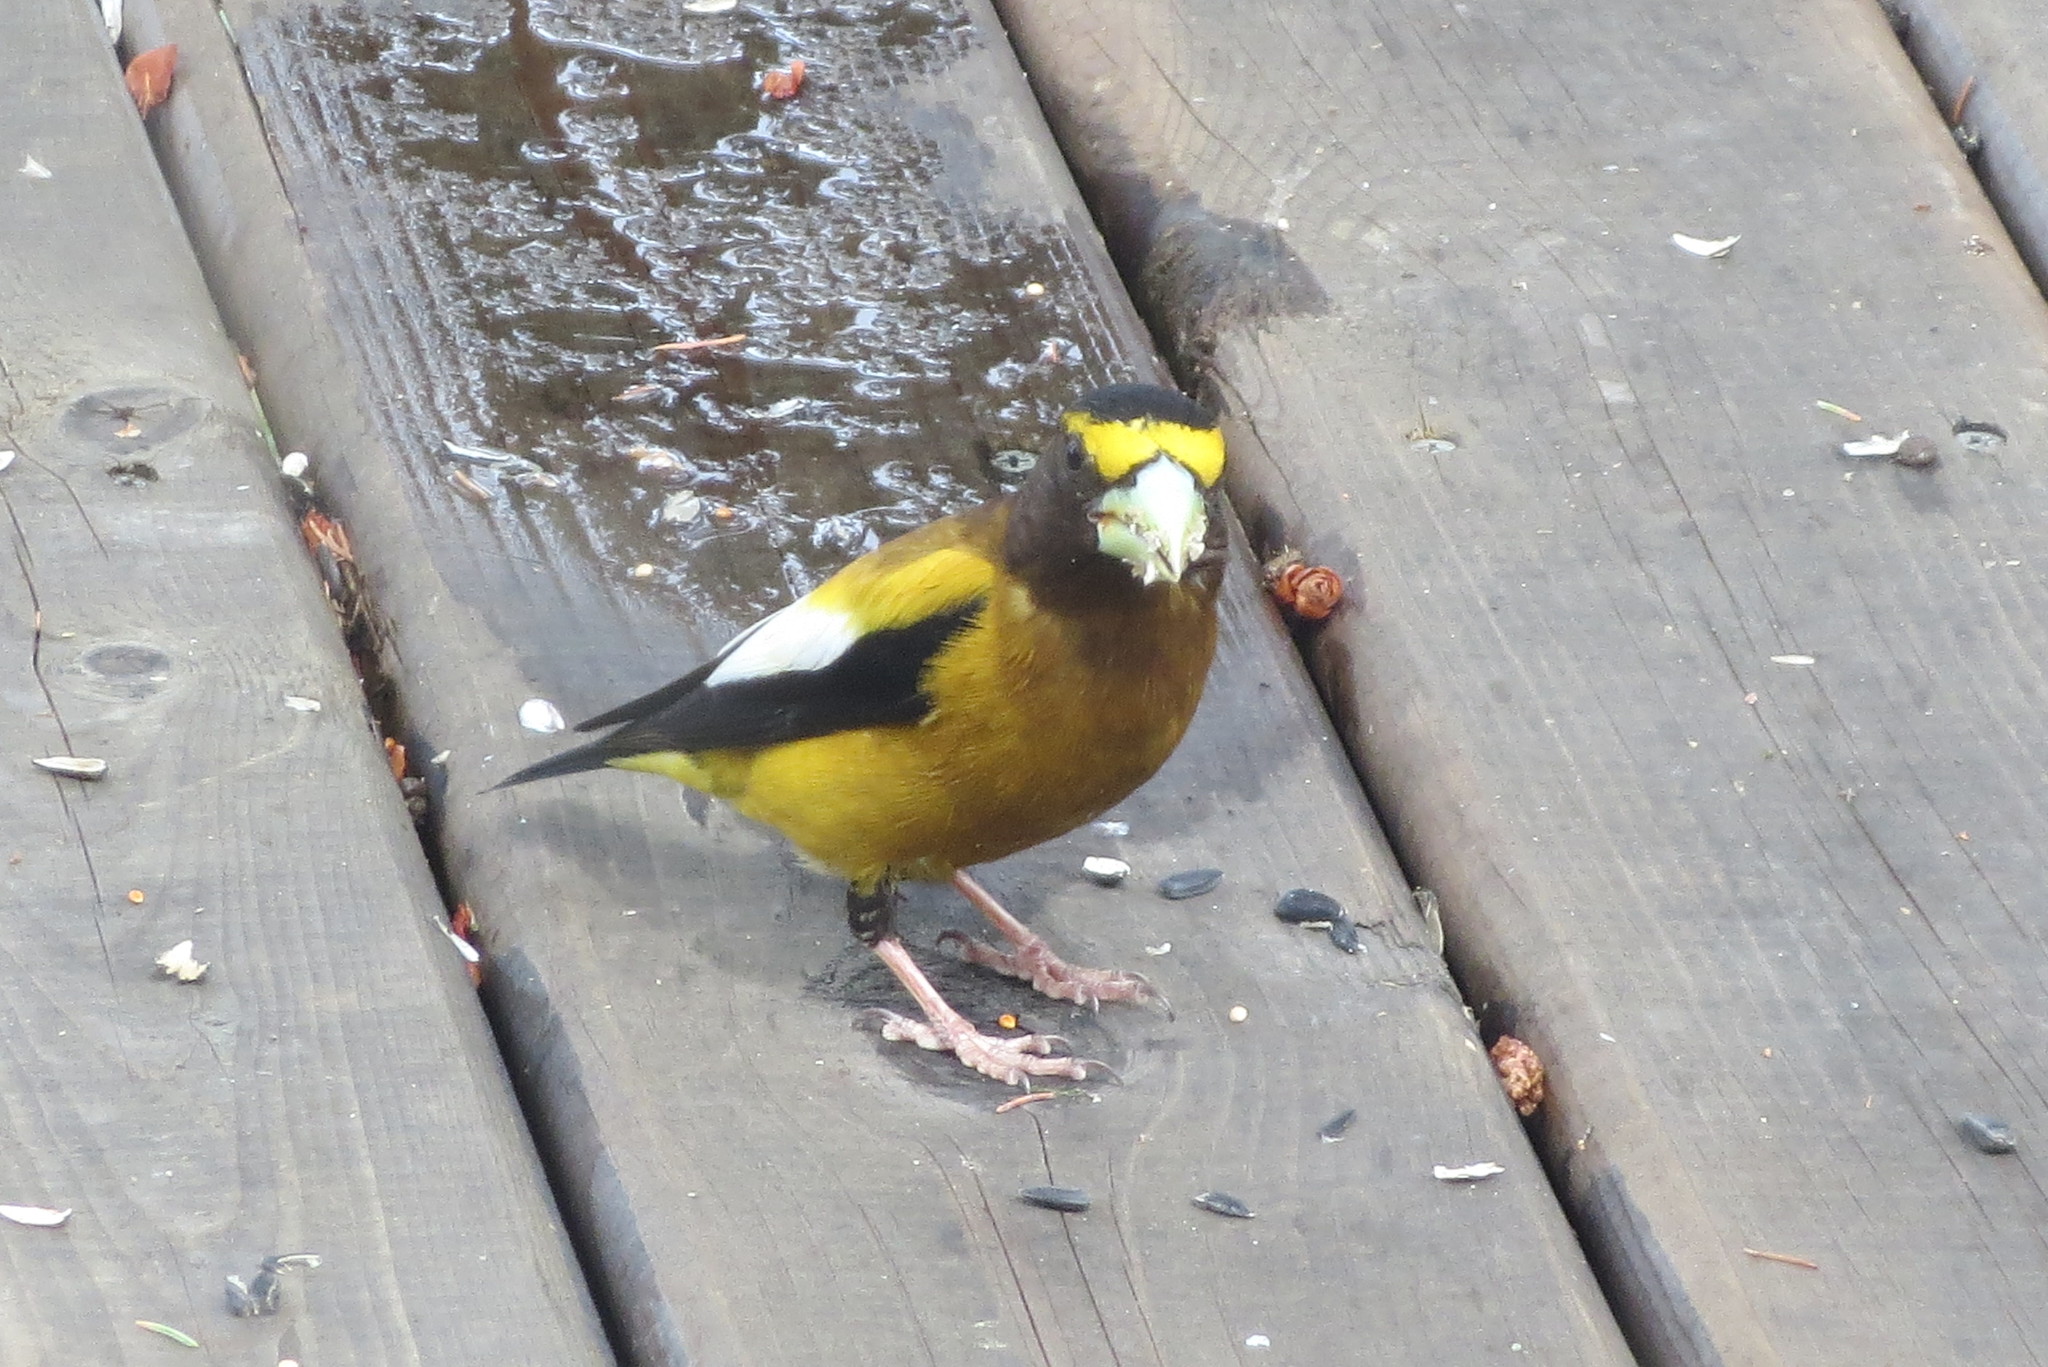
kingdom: Animalia
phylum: Chordata
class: Aves
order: Passeriformes
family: Fringillidae
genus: Hesperiphona
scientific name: Hesperiphona vespertina
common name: Evening grosbeak
